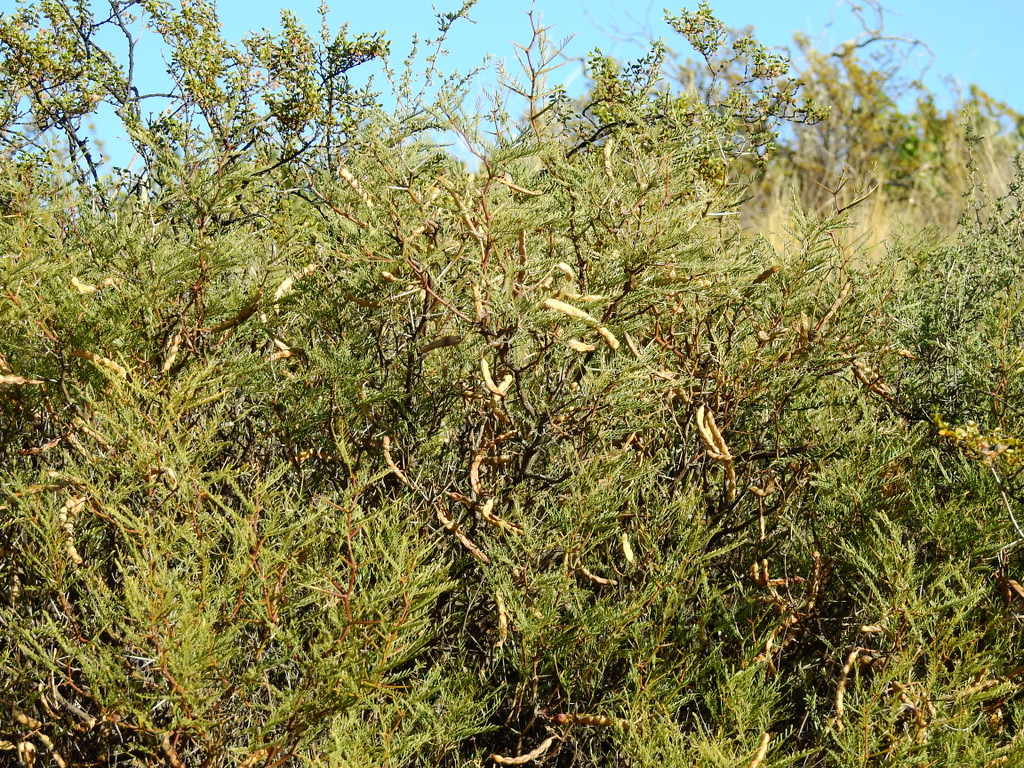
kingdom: Plantae
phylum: Tracheophyta
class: Magnoliopsida
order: Fabales
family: Fabaceae
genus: Prosopis
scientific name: Prosopis flexuosa
